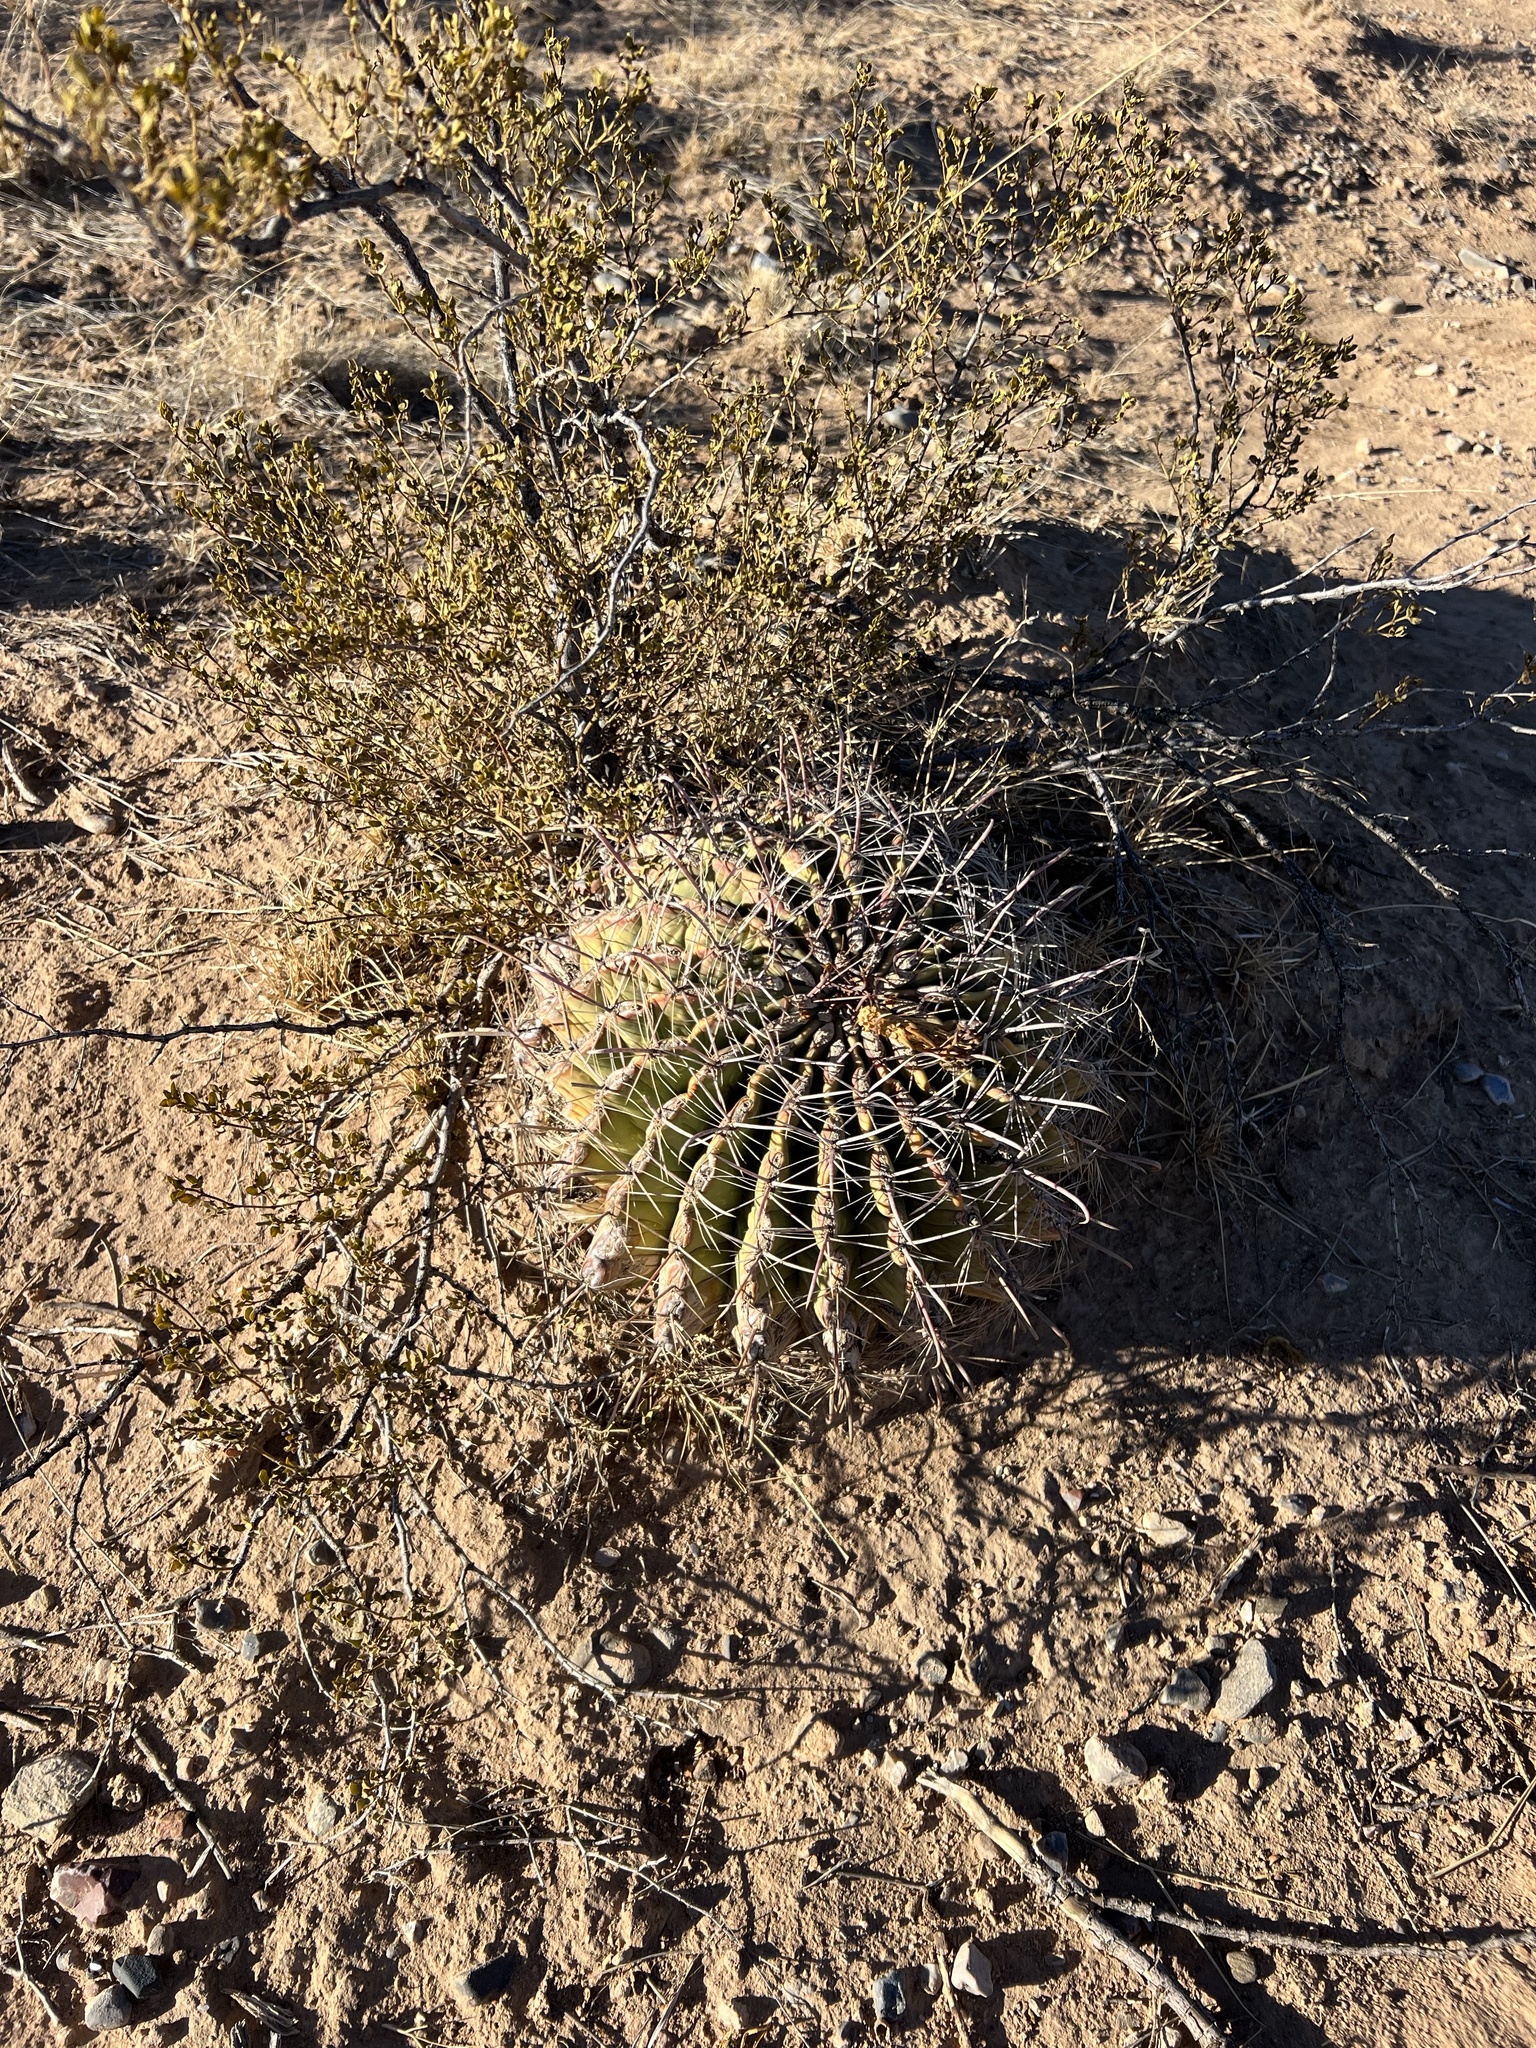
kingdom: Plantae
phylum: Tracheophyta
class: Magnoliopsida
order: Caryophyllales
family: Cactaceae
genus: Ferocactus
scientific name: Ferocactus wislizeni
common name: Candy barrel cactus
